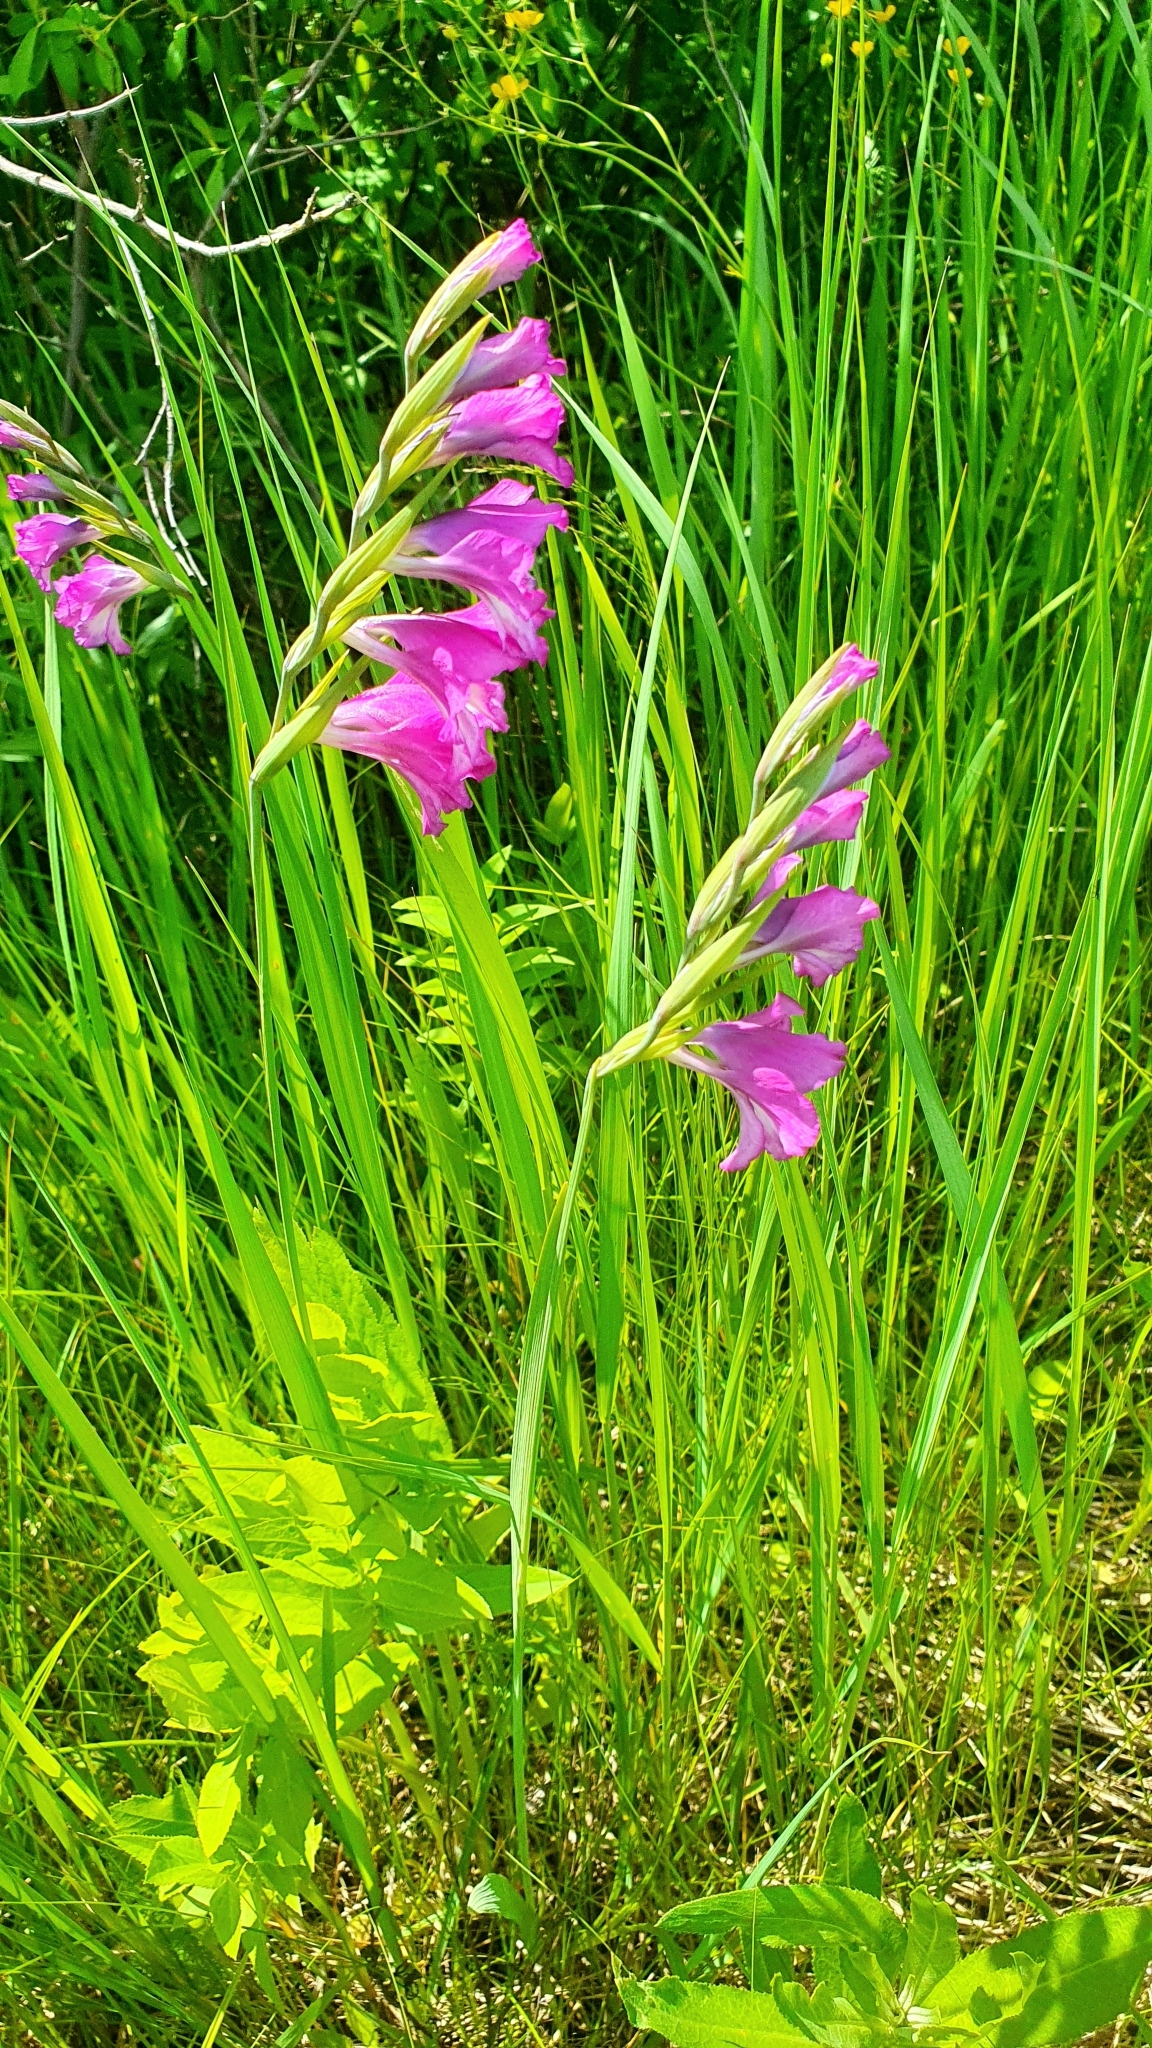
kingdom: Plantae
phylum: Tracheophyta
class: Liliopsida
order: Asparagales
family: Iridaceae
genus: Gladiolus
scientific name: Gladiolus tenuis
